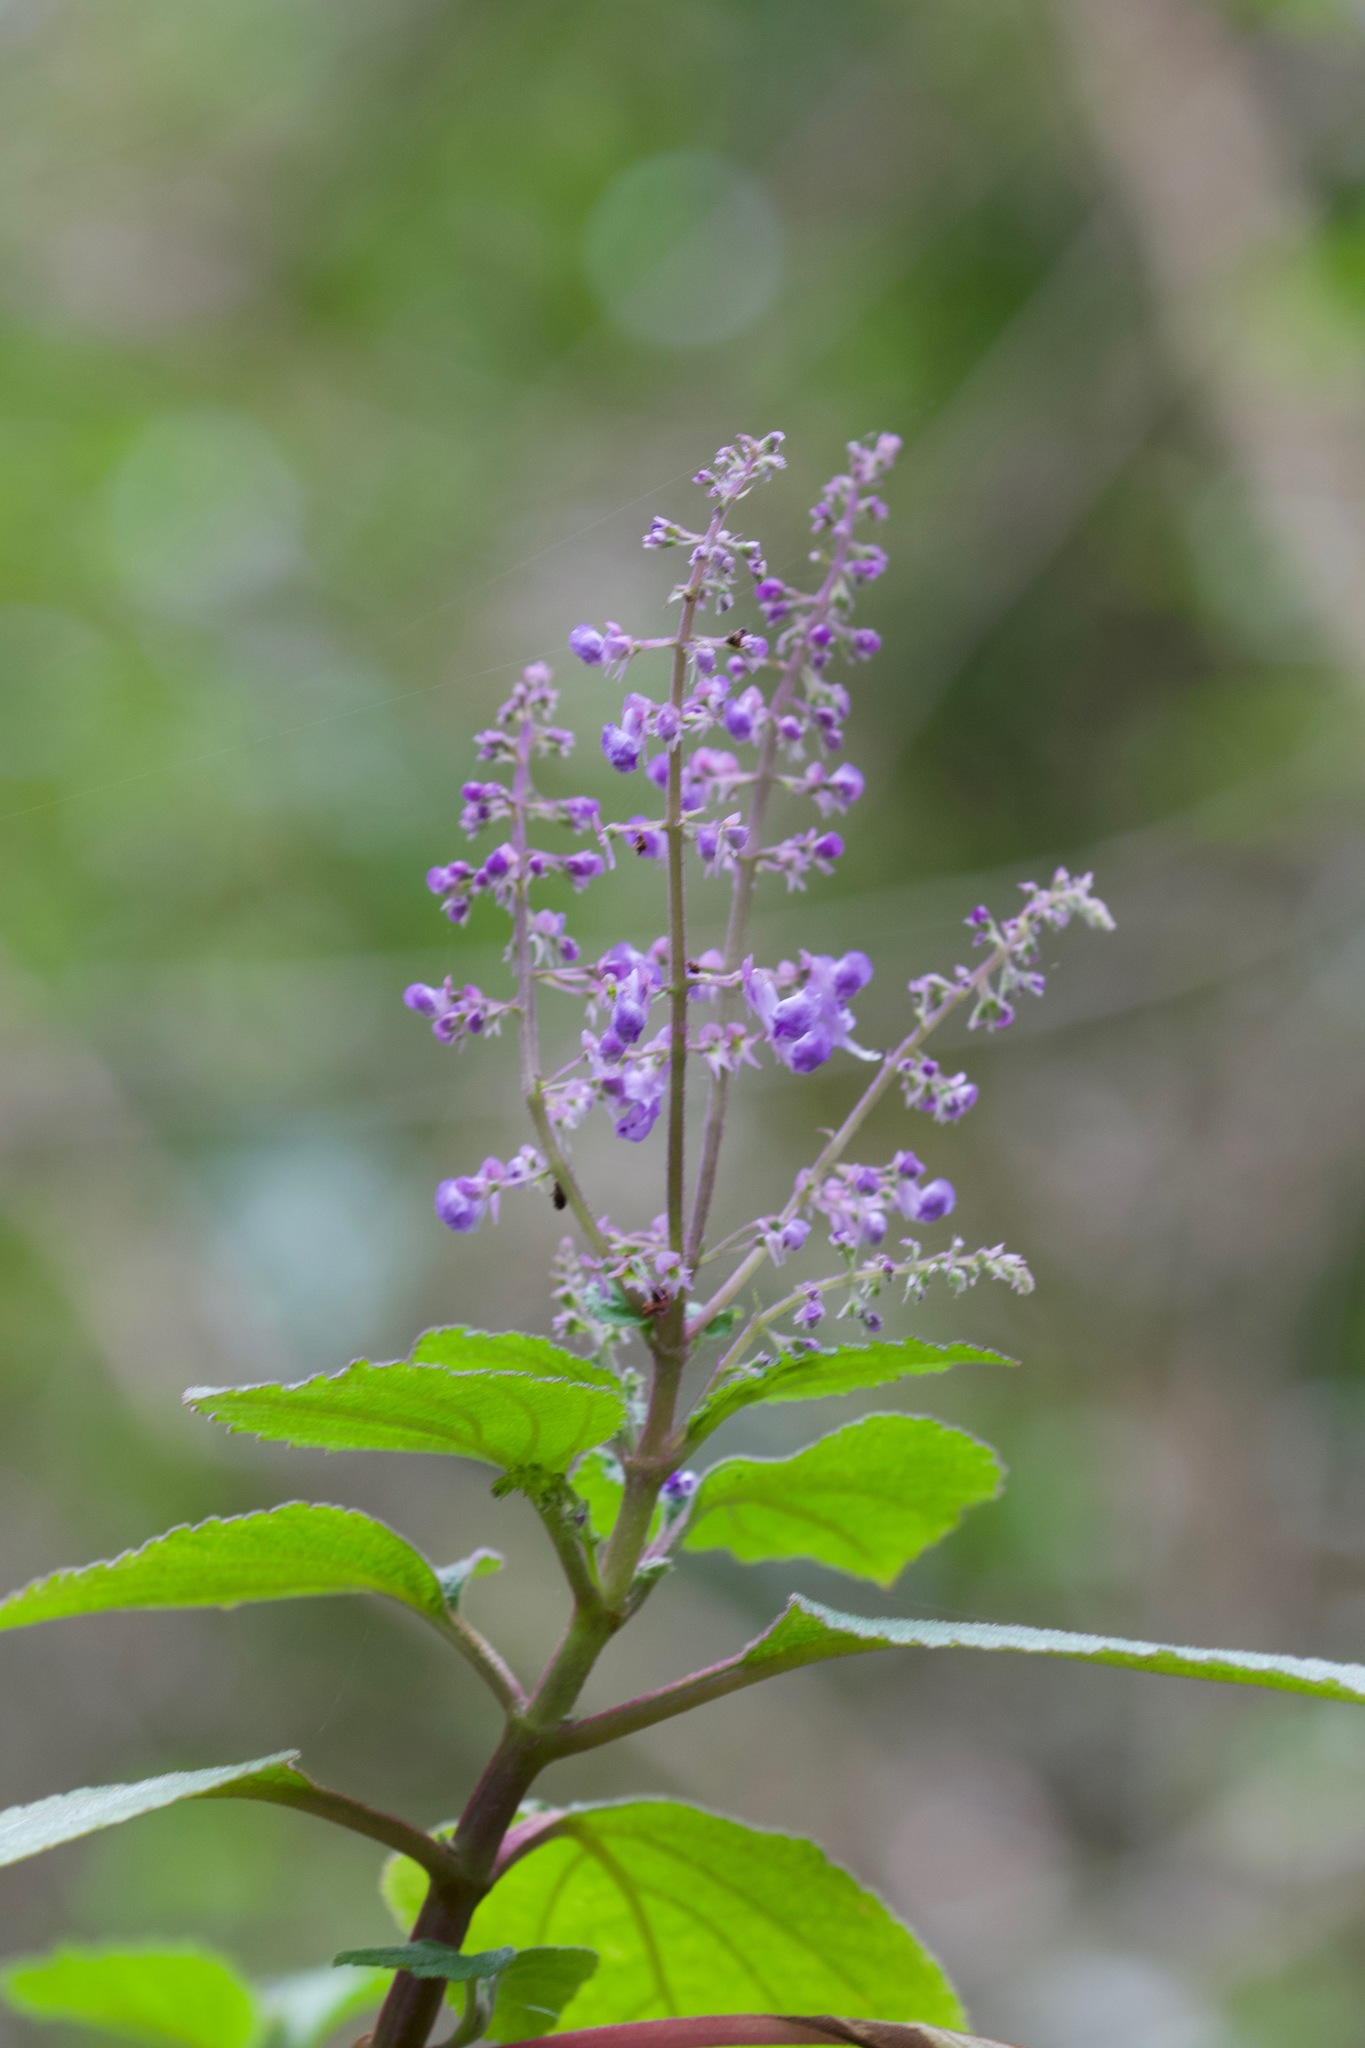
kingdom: Plantae
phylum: Tracheophyta
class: Magnoliopsida
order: Lamiales
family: Lamiaceae
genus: Plectranthus
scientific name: Plectranthus fruticosus
